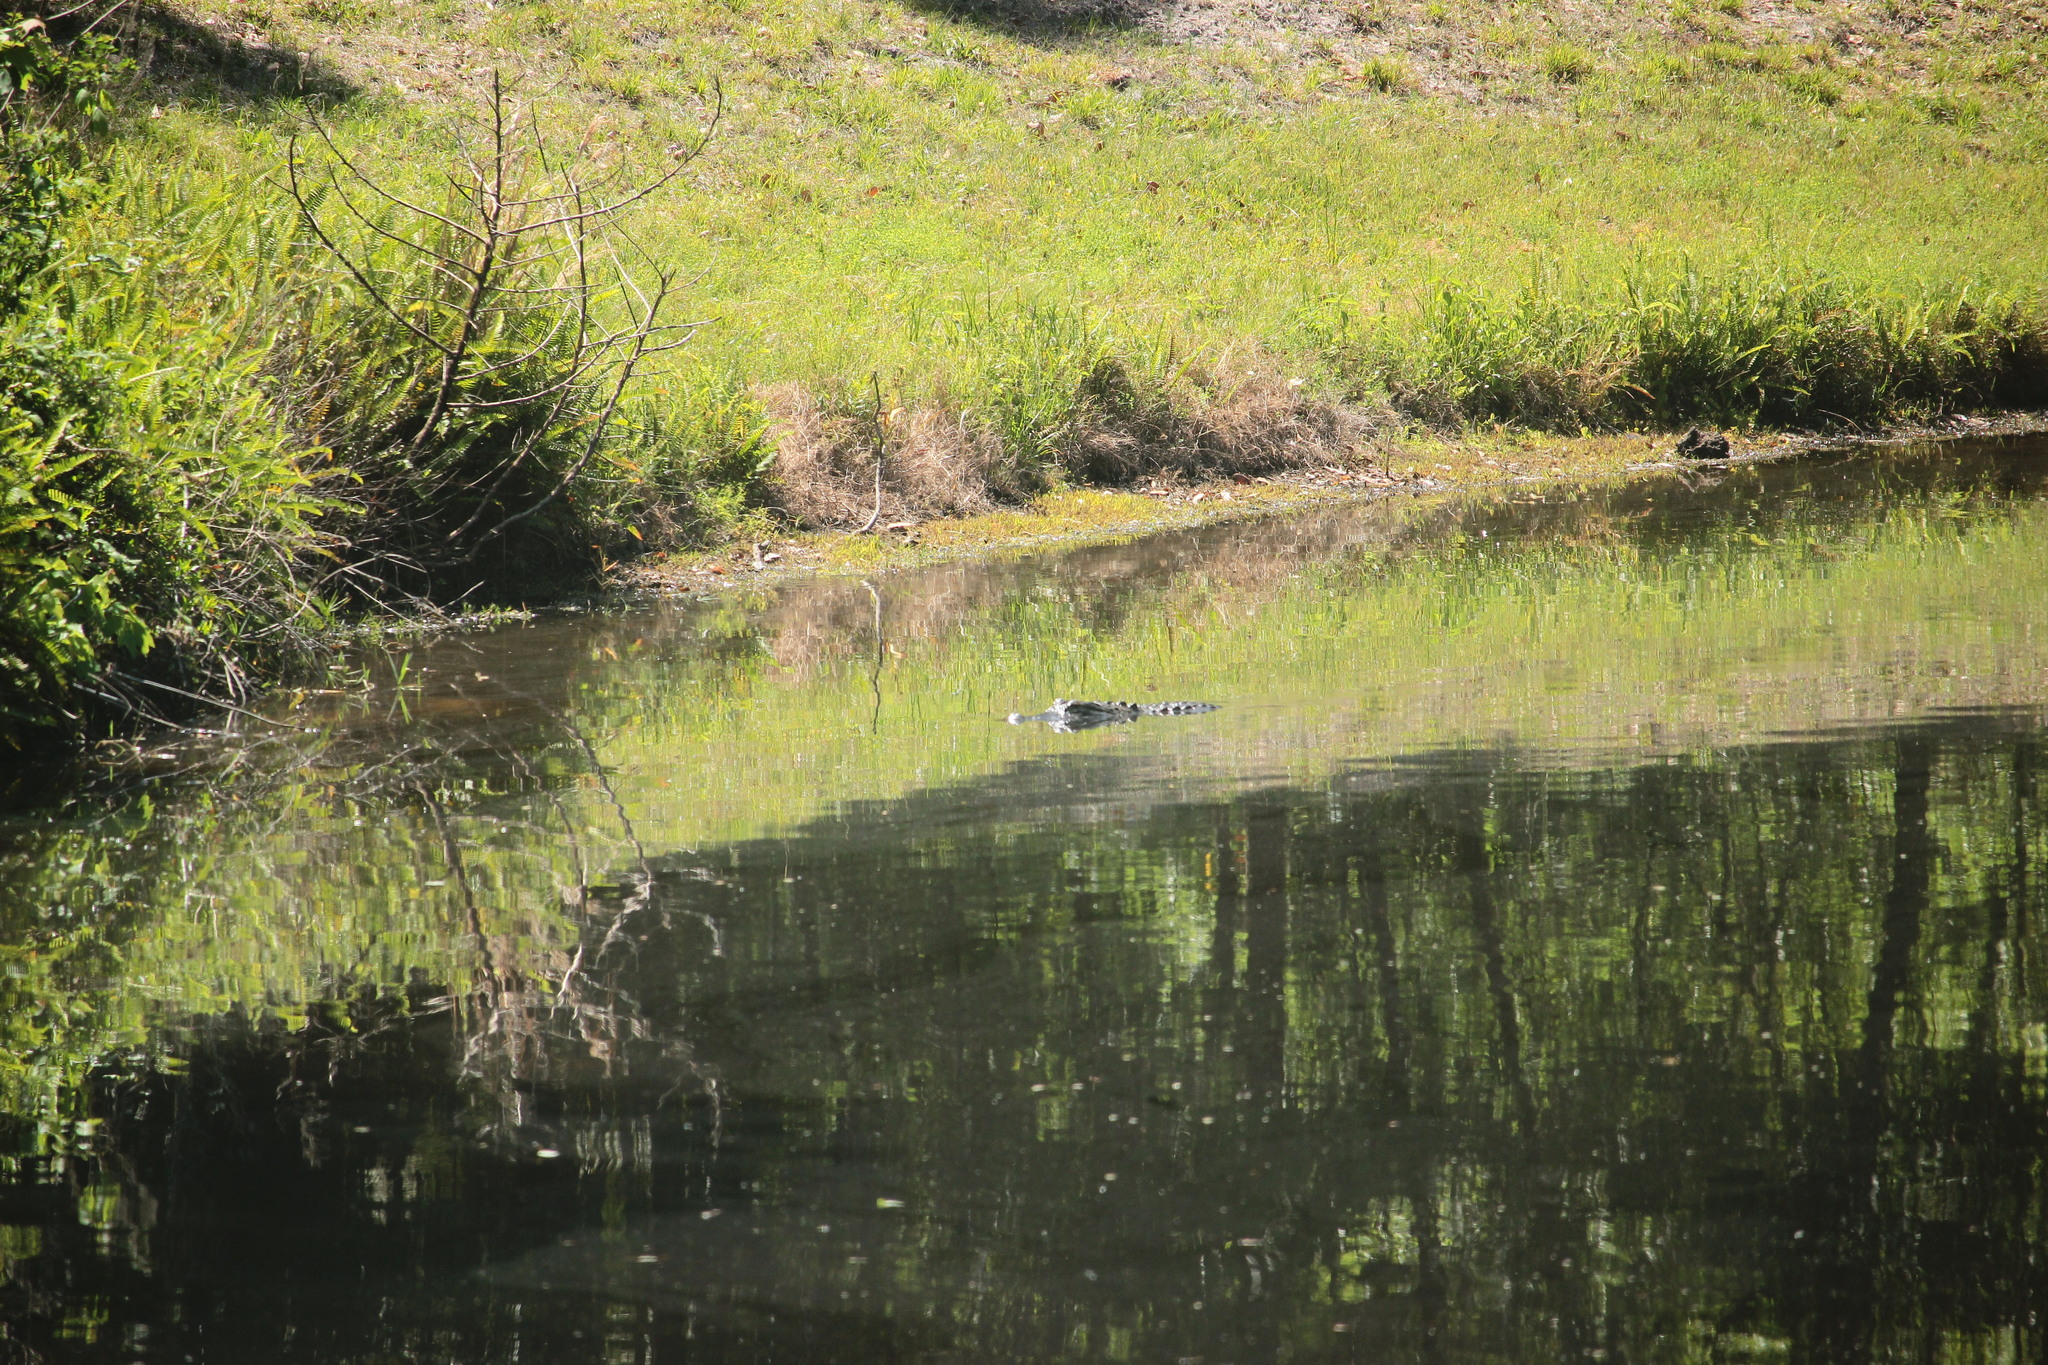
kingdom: Animalia
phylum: Chordata
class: Crocodylia
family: Alligatoridae
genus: Alligator
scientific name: Alligator mississippiensis
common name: American alligator
